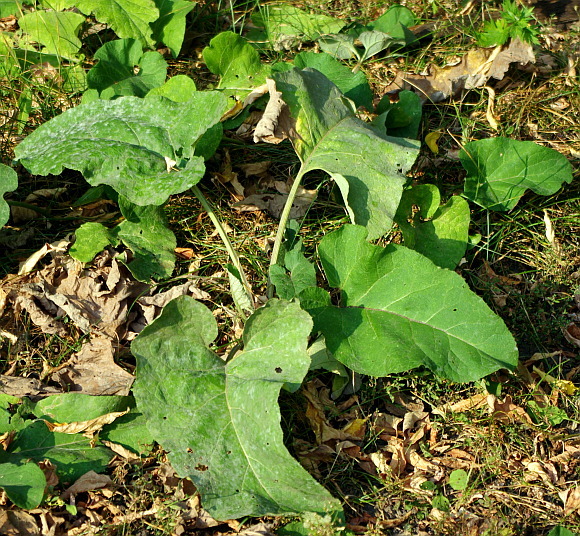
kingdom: Plantae
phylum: Tracheophyta
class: Magnoliopsida
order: Asterales
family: Asteraceae
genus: Arctium
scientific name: Arctium
